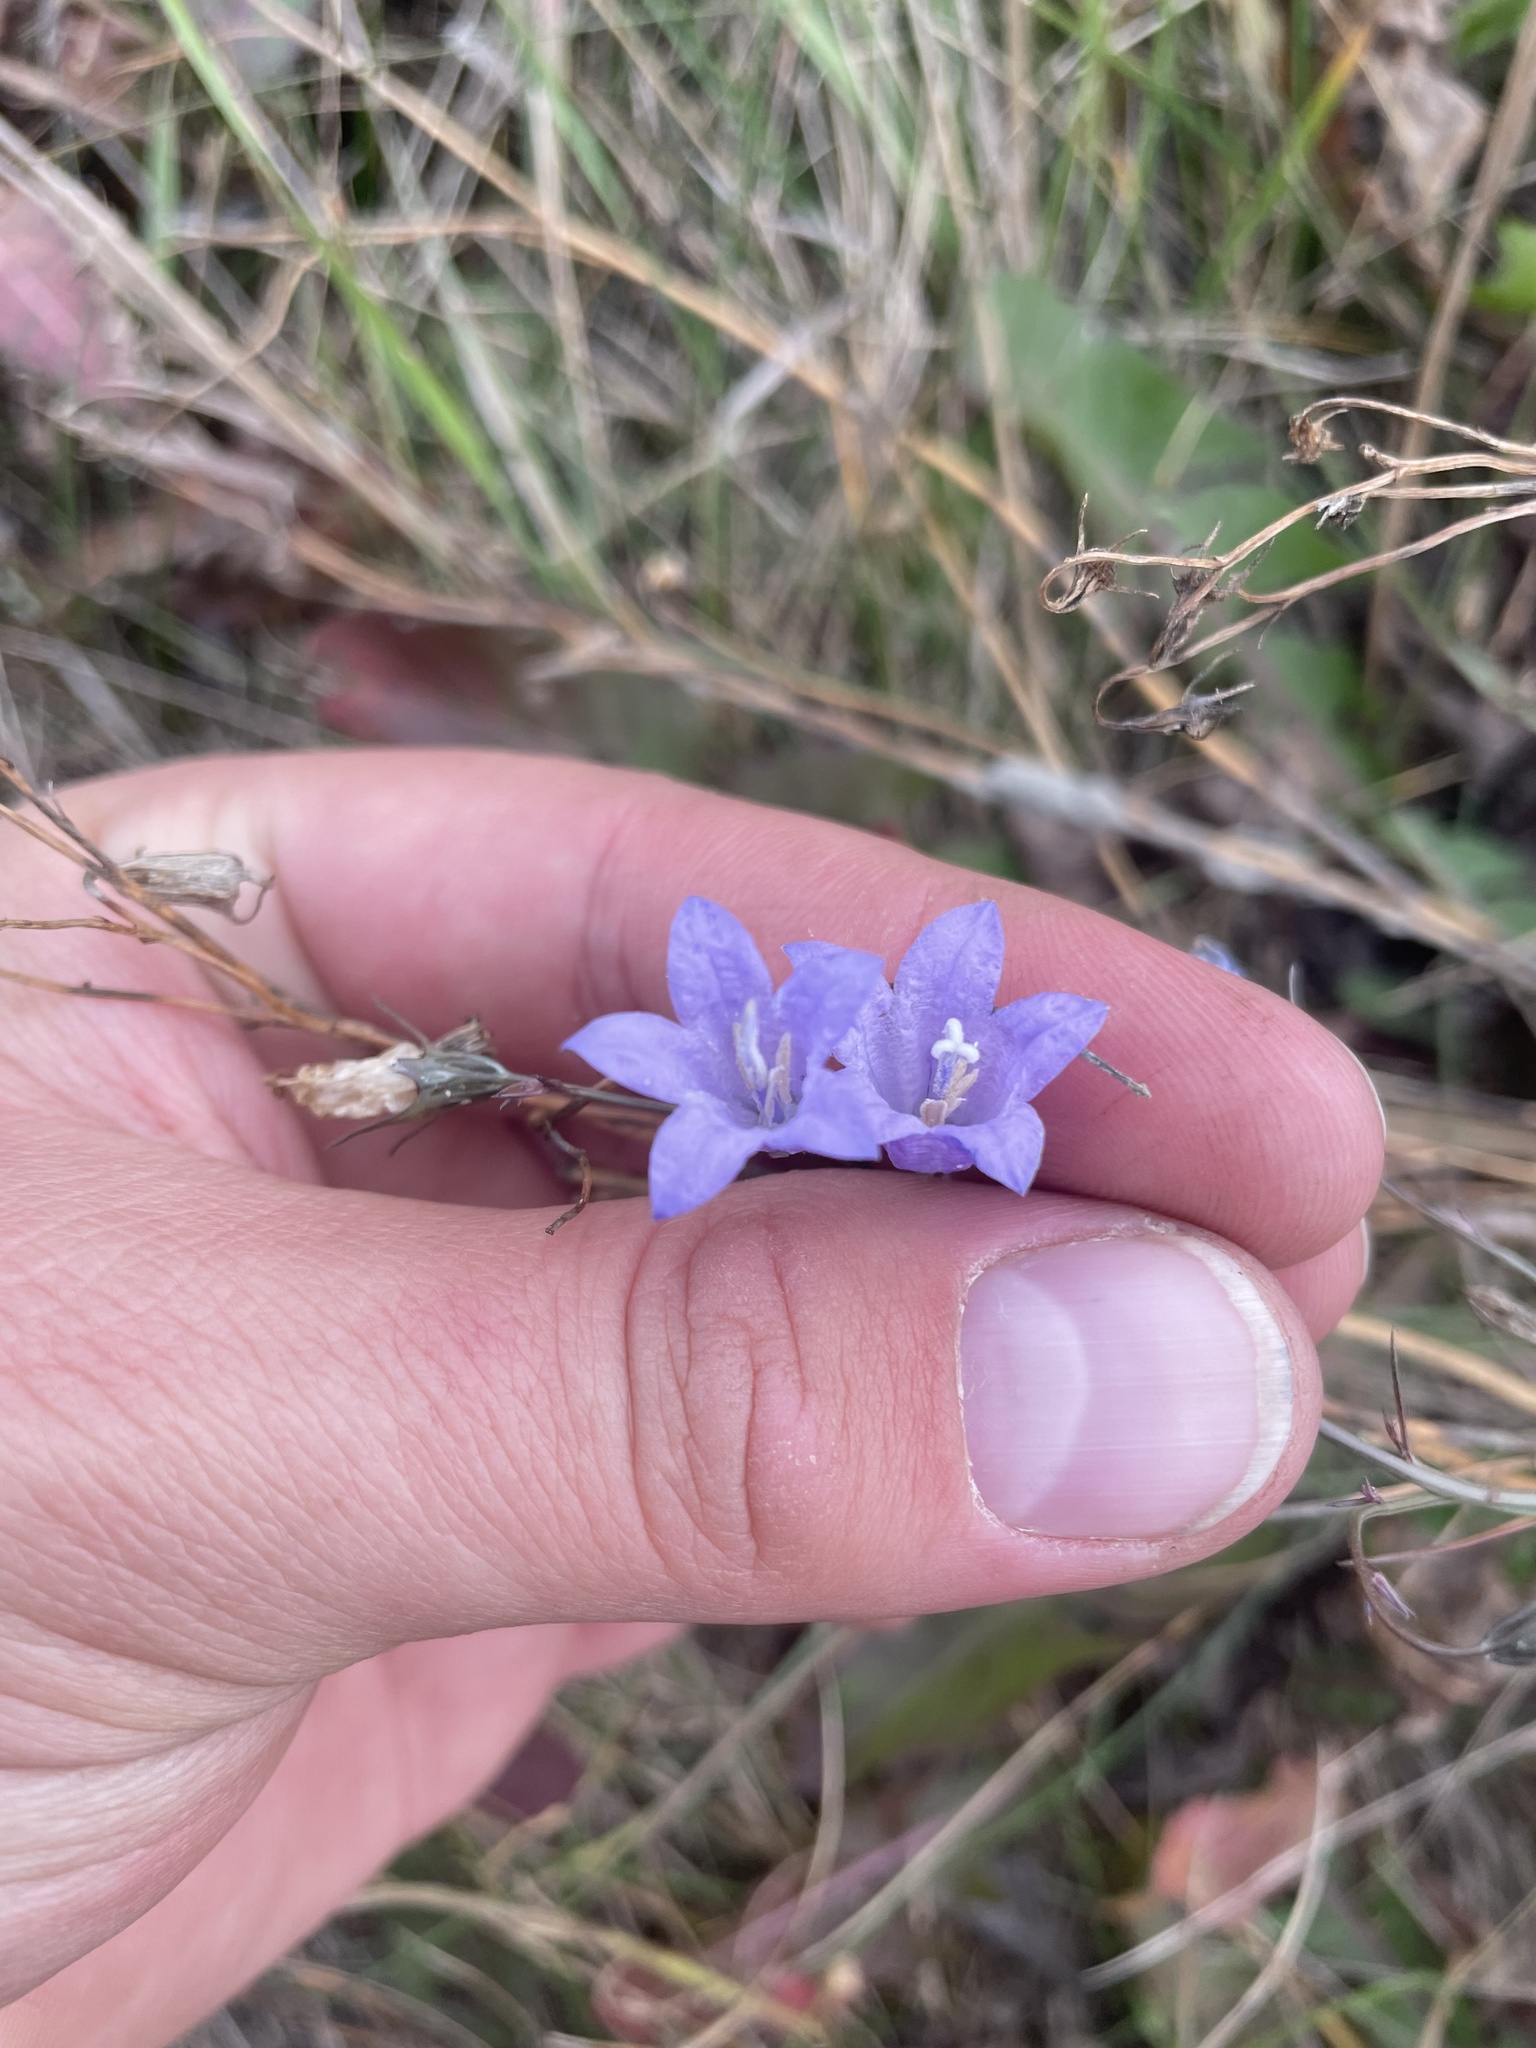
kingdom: Plantae
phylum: Tracheophyta
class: Magnoliopsida
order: Asterales
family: Campanulaceae
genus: Campanula
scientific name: Campanula alaskana
